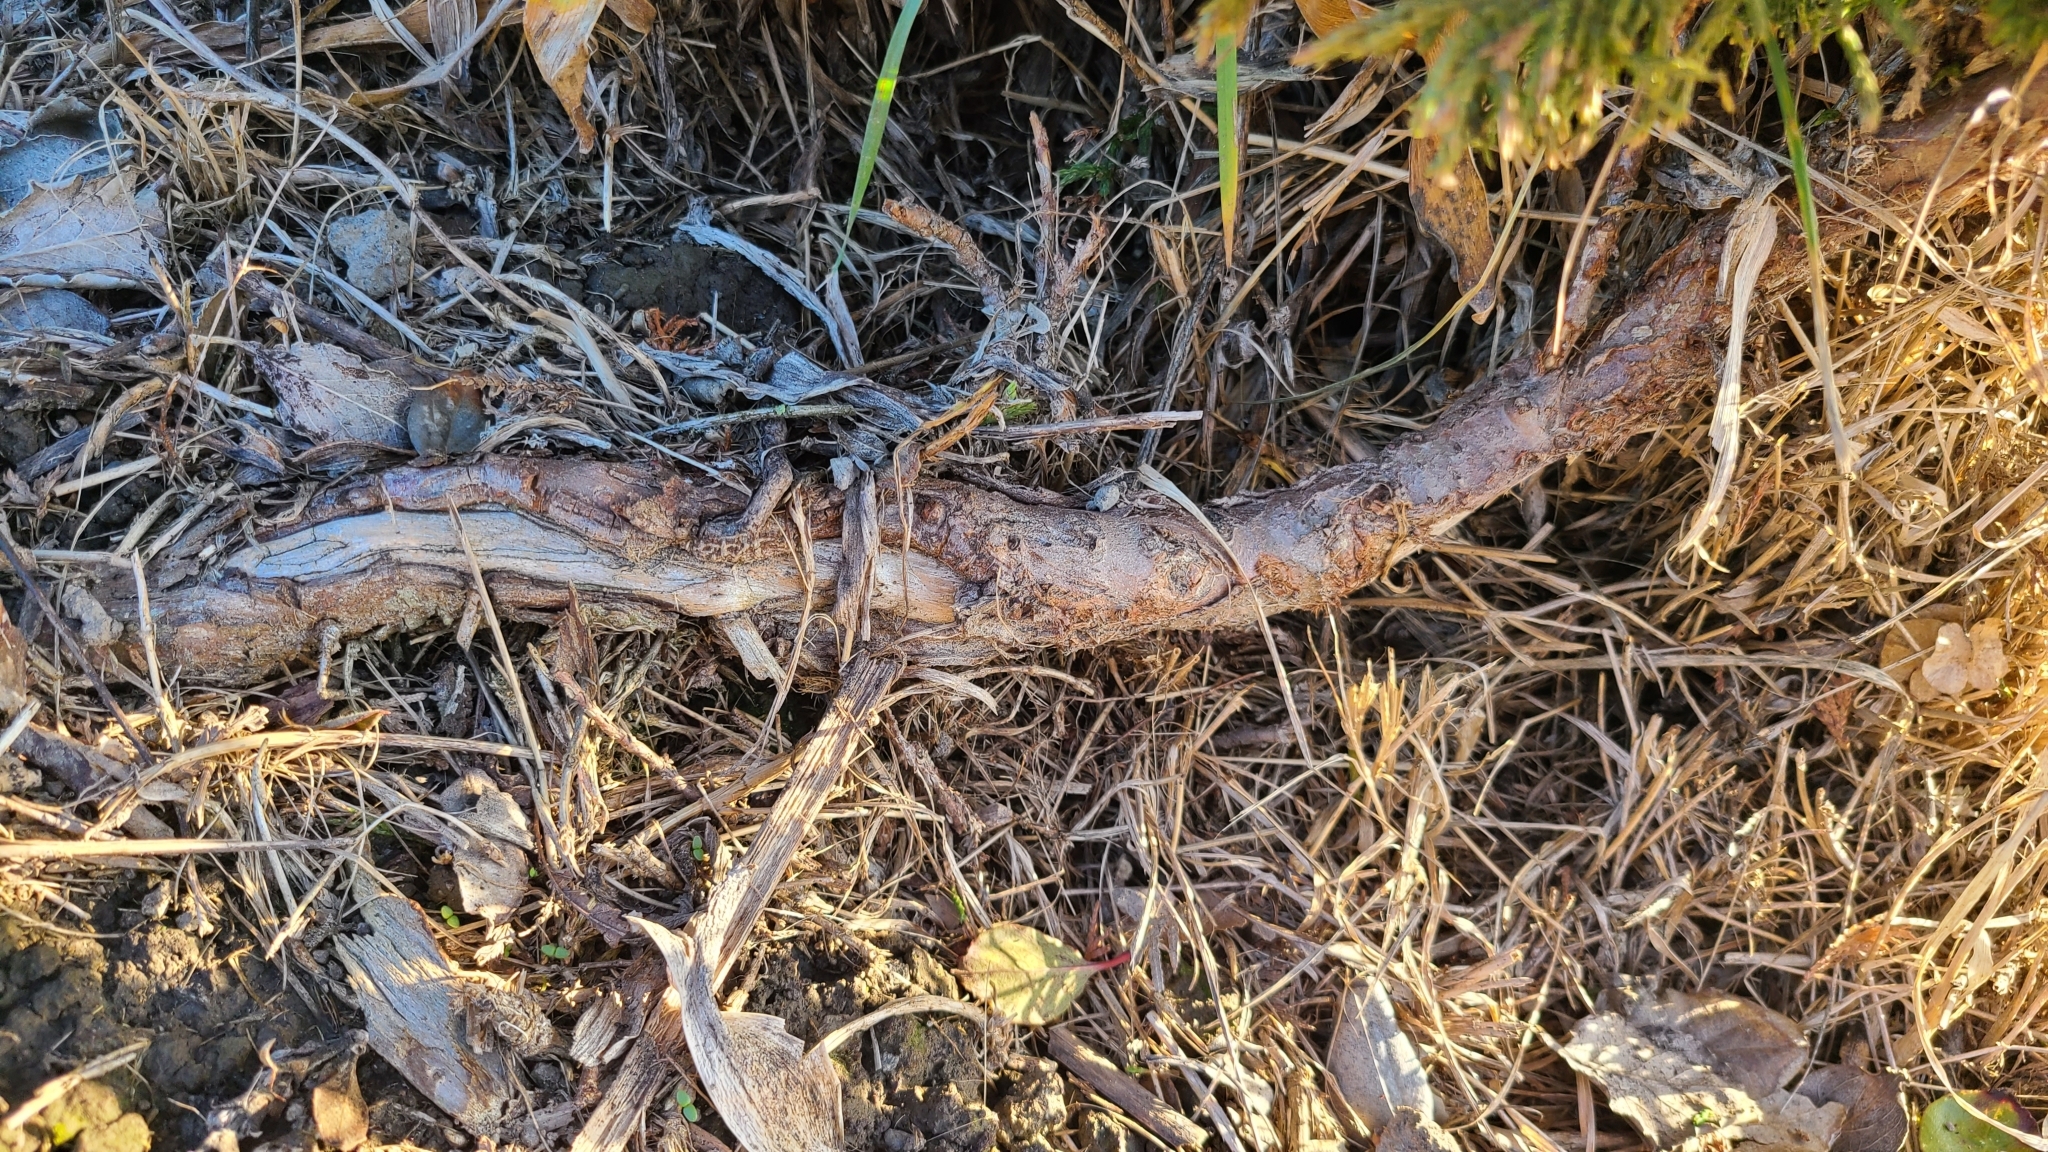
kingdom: Plantae
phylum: Tracheophyta
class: Pinopsida
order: Pinales
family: Cupressaceae
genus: Cupressus
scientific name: Cupressus macrocarpa
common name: Monterey cypress
